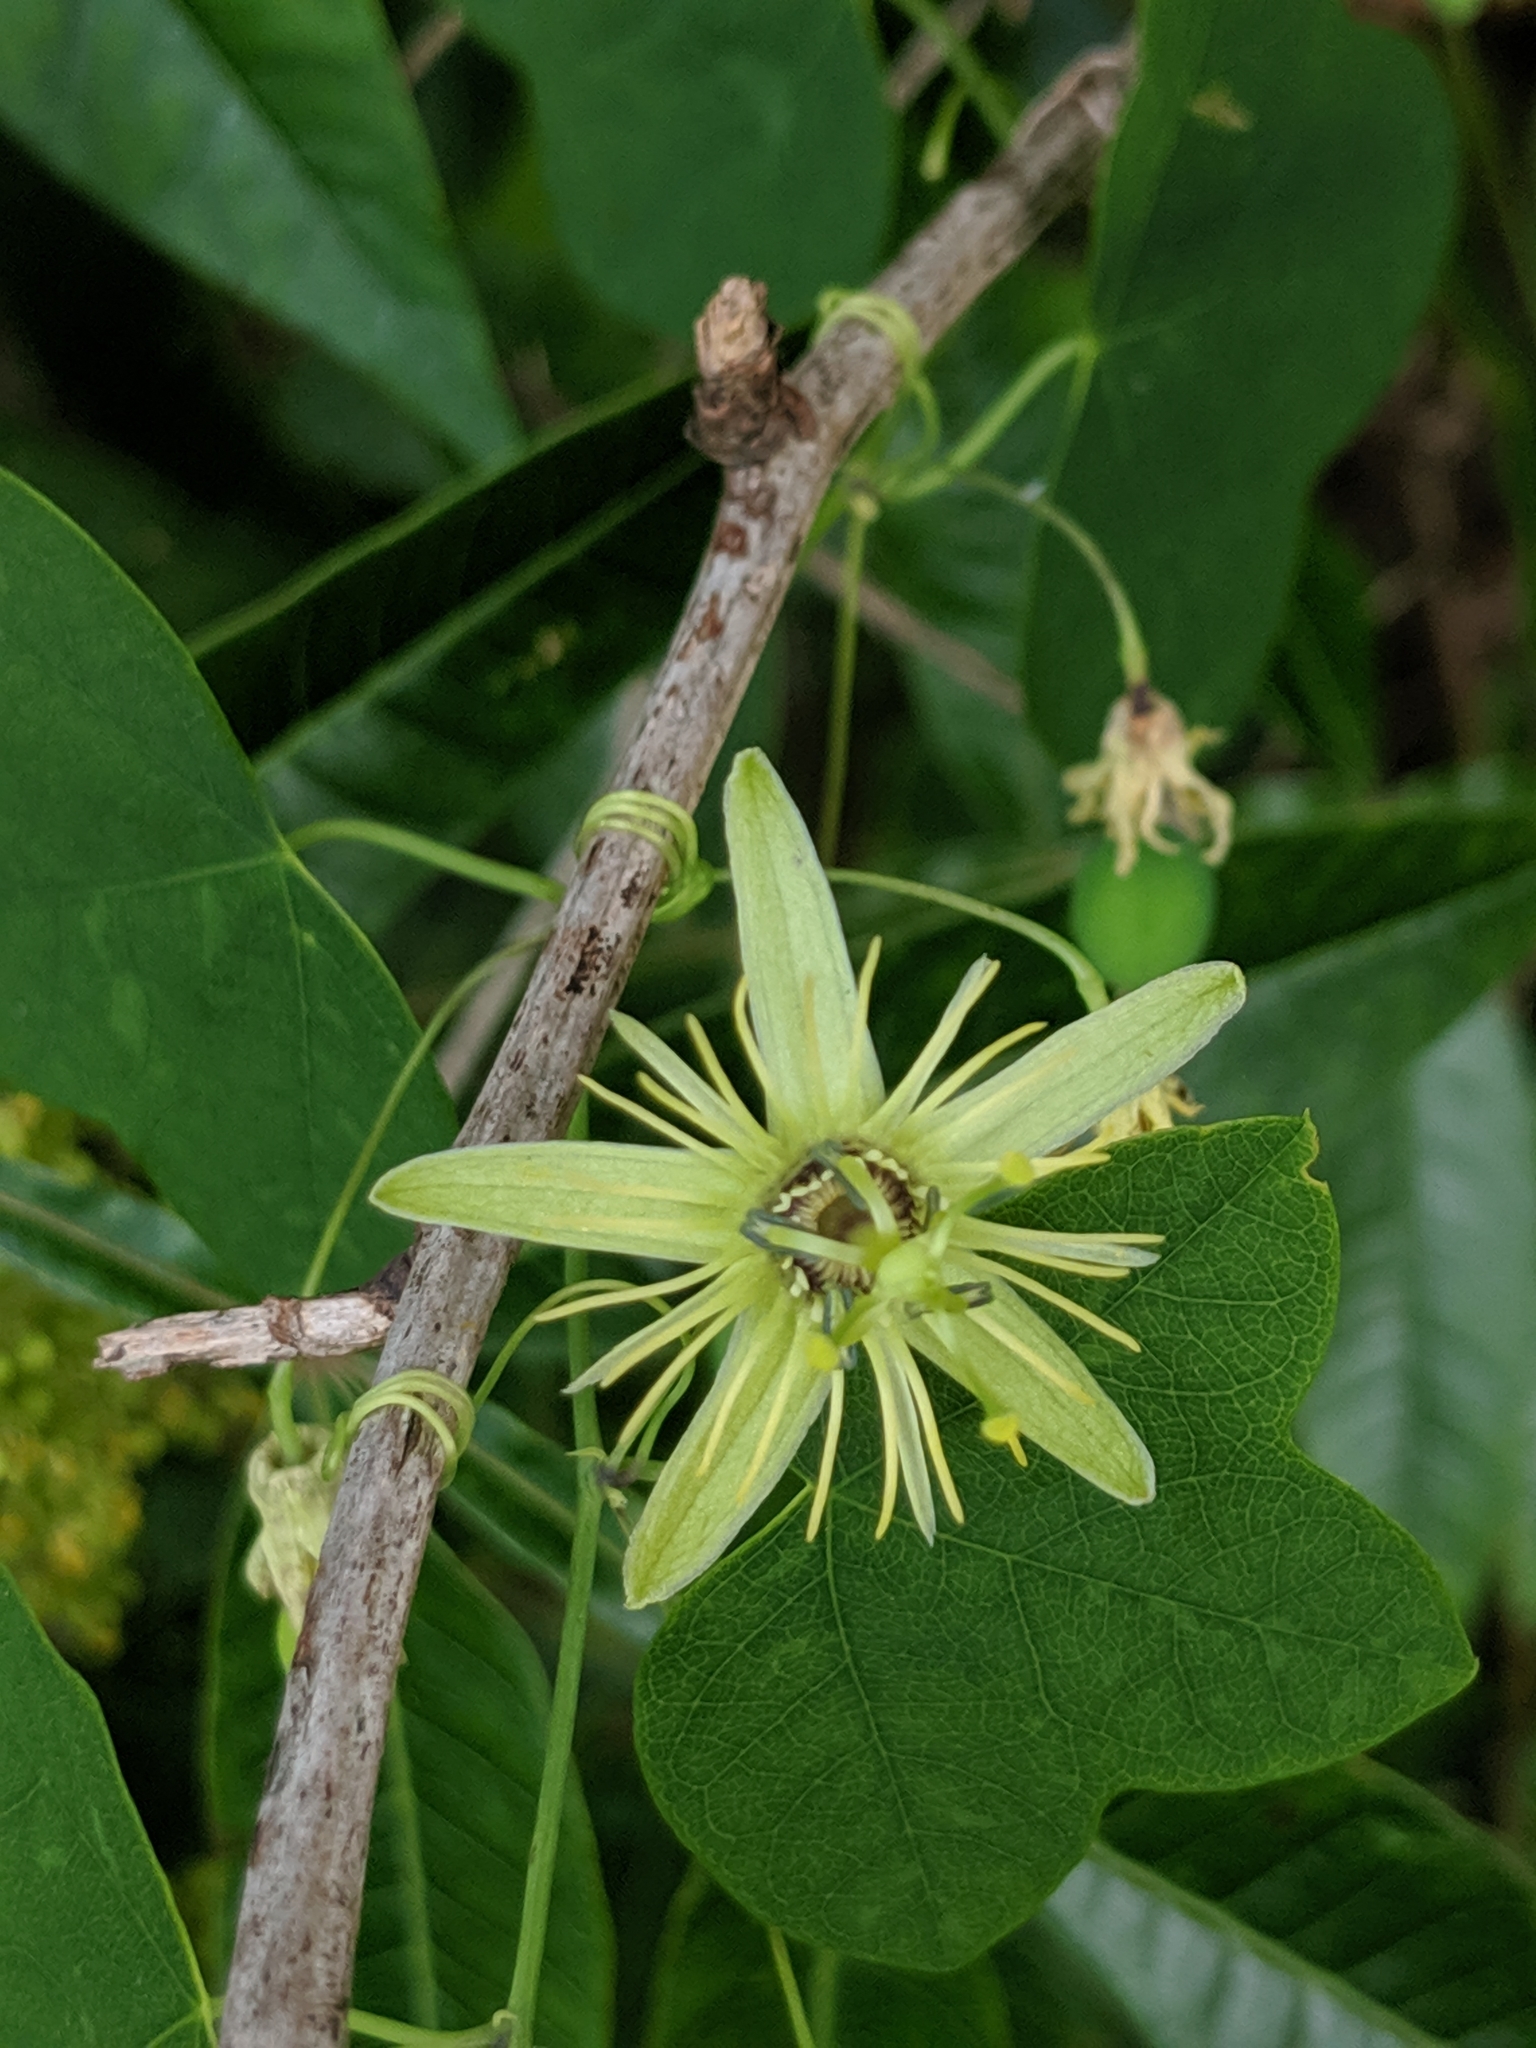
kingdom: Plantae
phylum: Tracheophyta
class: Magnoliopsida
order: Malpighiales
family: Passifloraceae
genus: Passiflora
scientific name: Passiflora lutea
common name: Yellow passionflower
